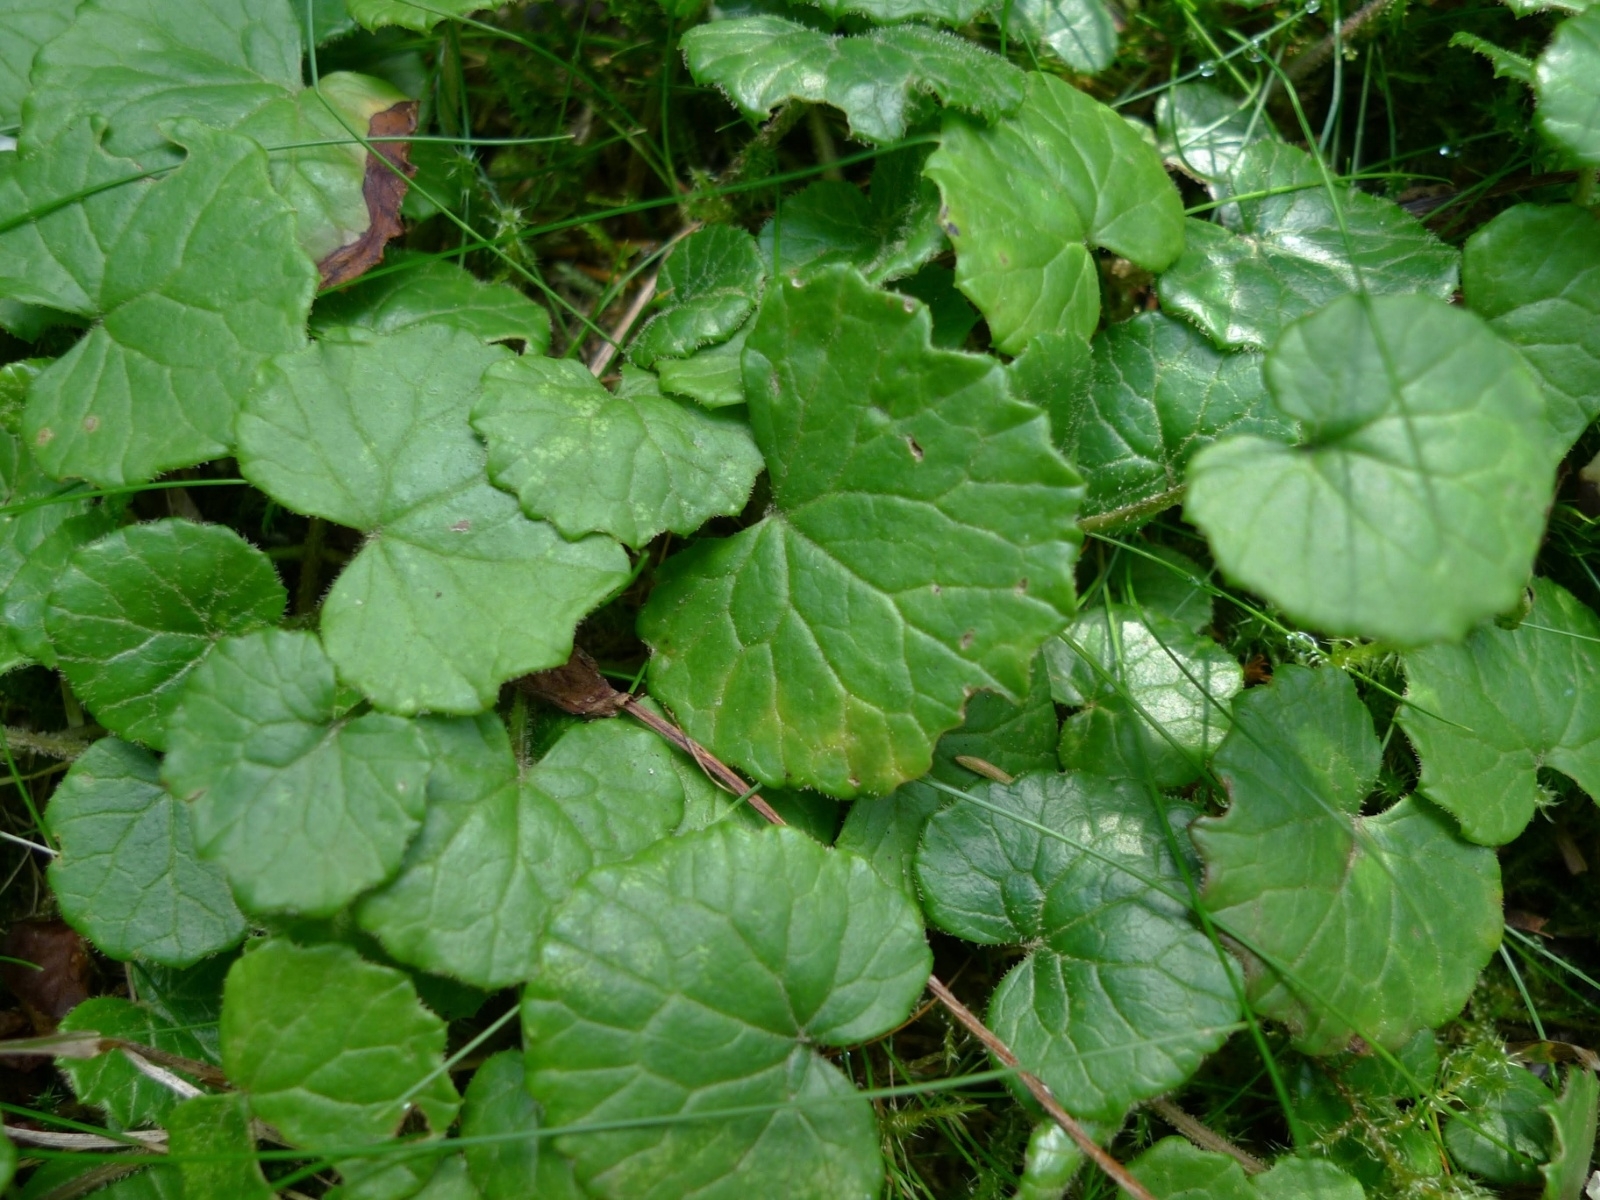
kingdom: Plantae
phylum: Tracheophyta
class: Magnoliopsida
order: Asterales
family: Asteraceae
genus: Homogyne
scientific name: Homogyne alpina
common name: Purple colt's-foot
